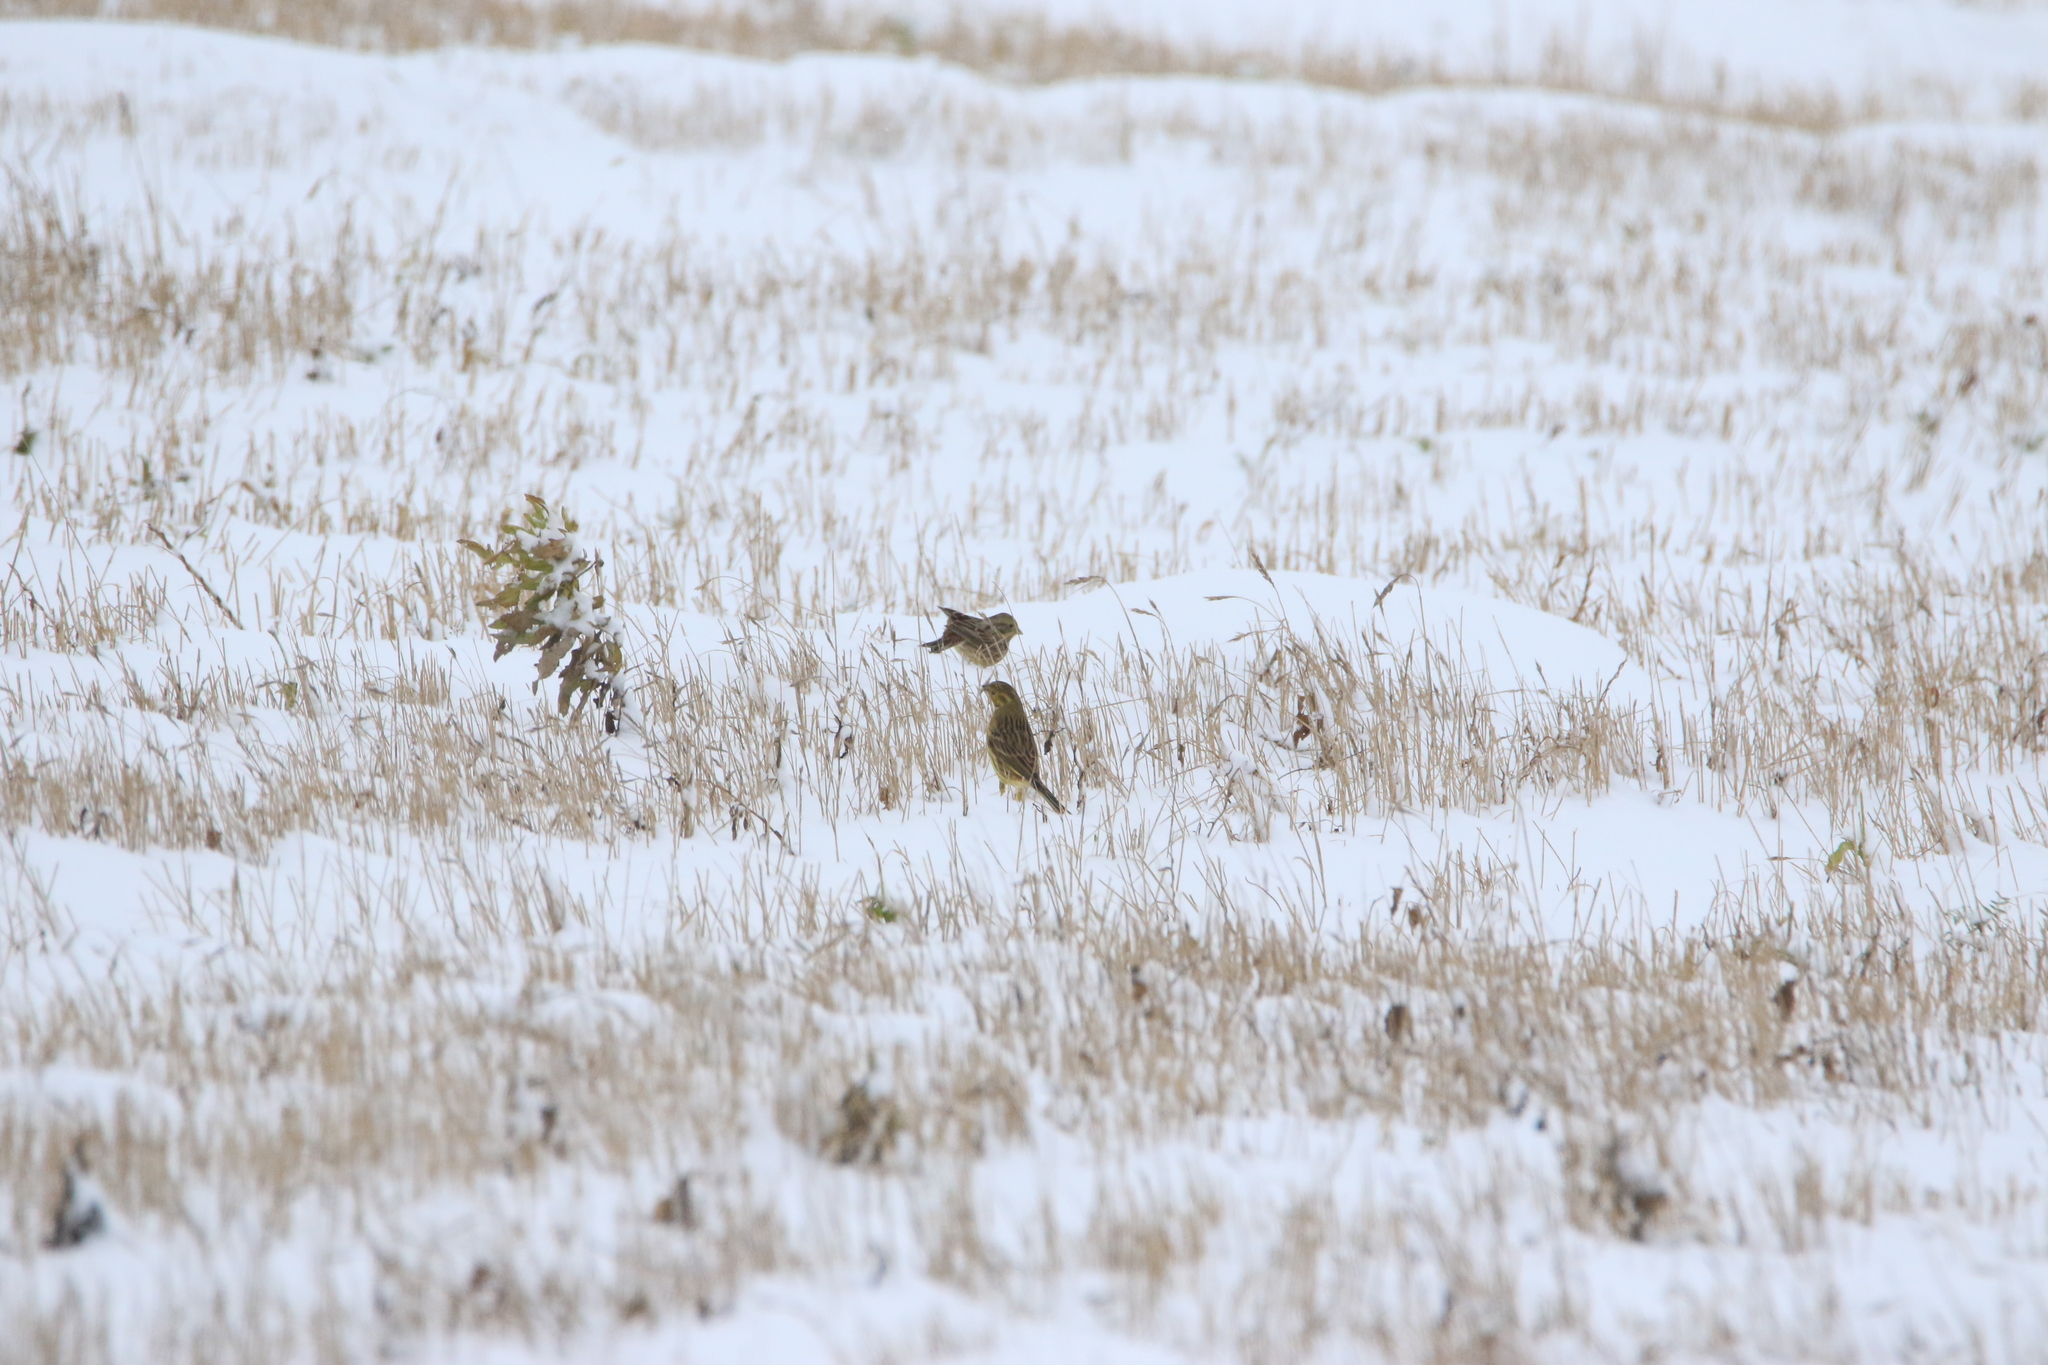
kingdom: Animalia
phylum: Chordata
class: Aves
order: Passeriformes
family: Emberizidae
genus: Emberiza
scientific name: Emberiza citrinella
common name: Yellowhammer
